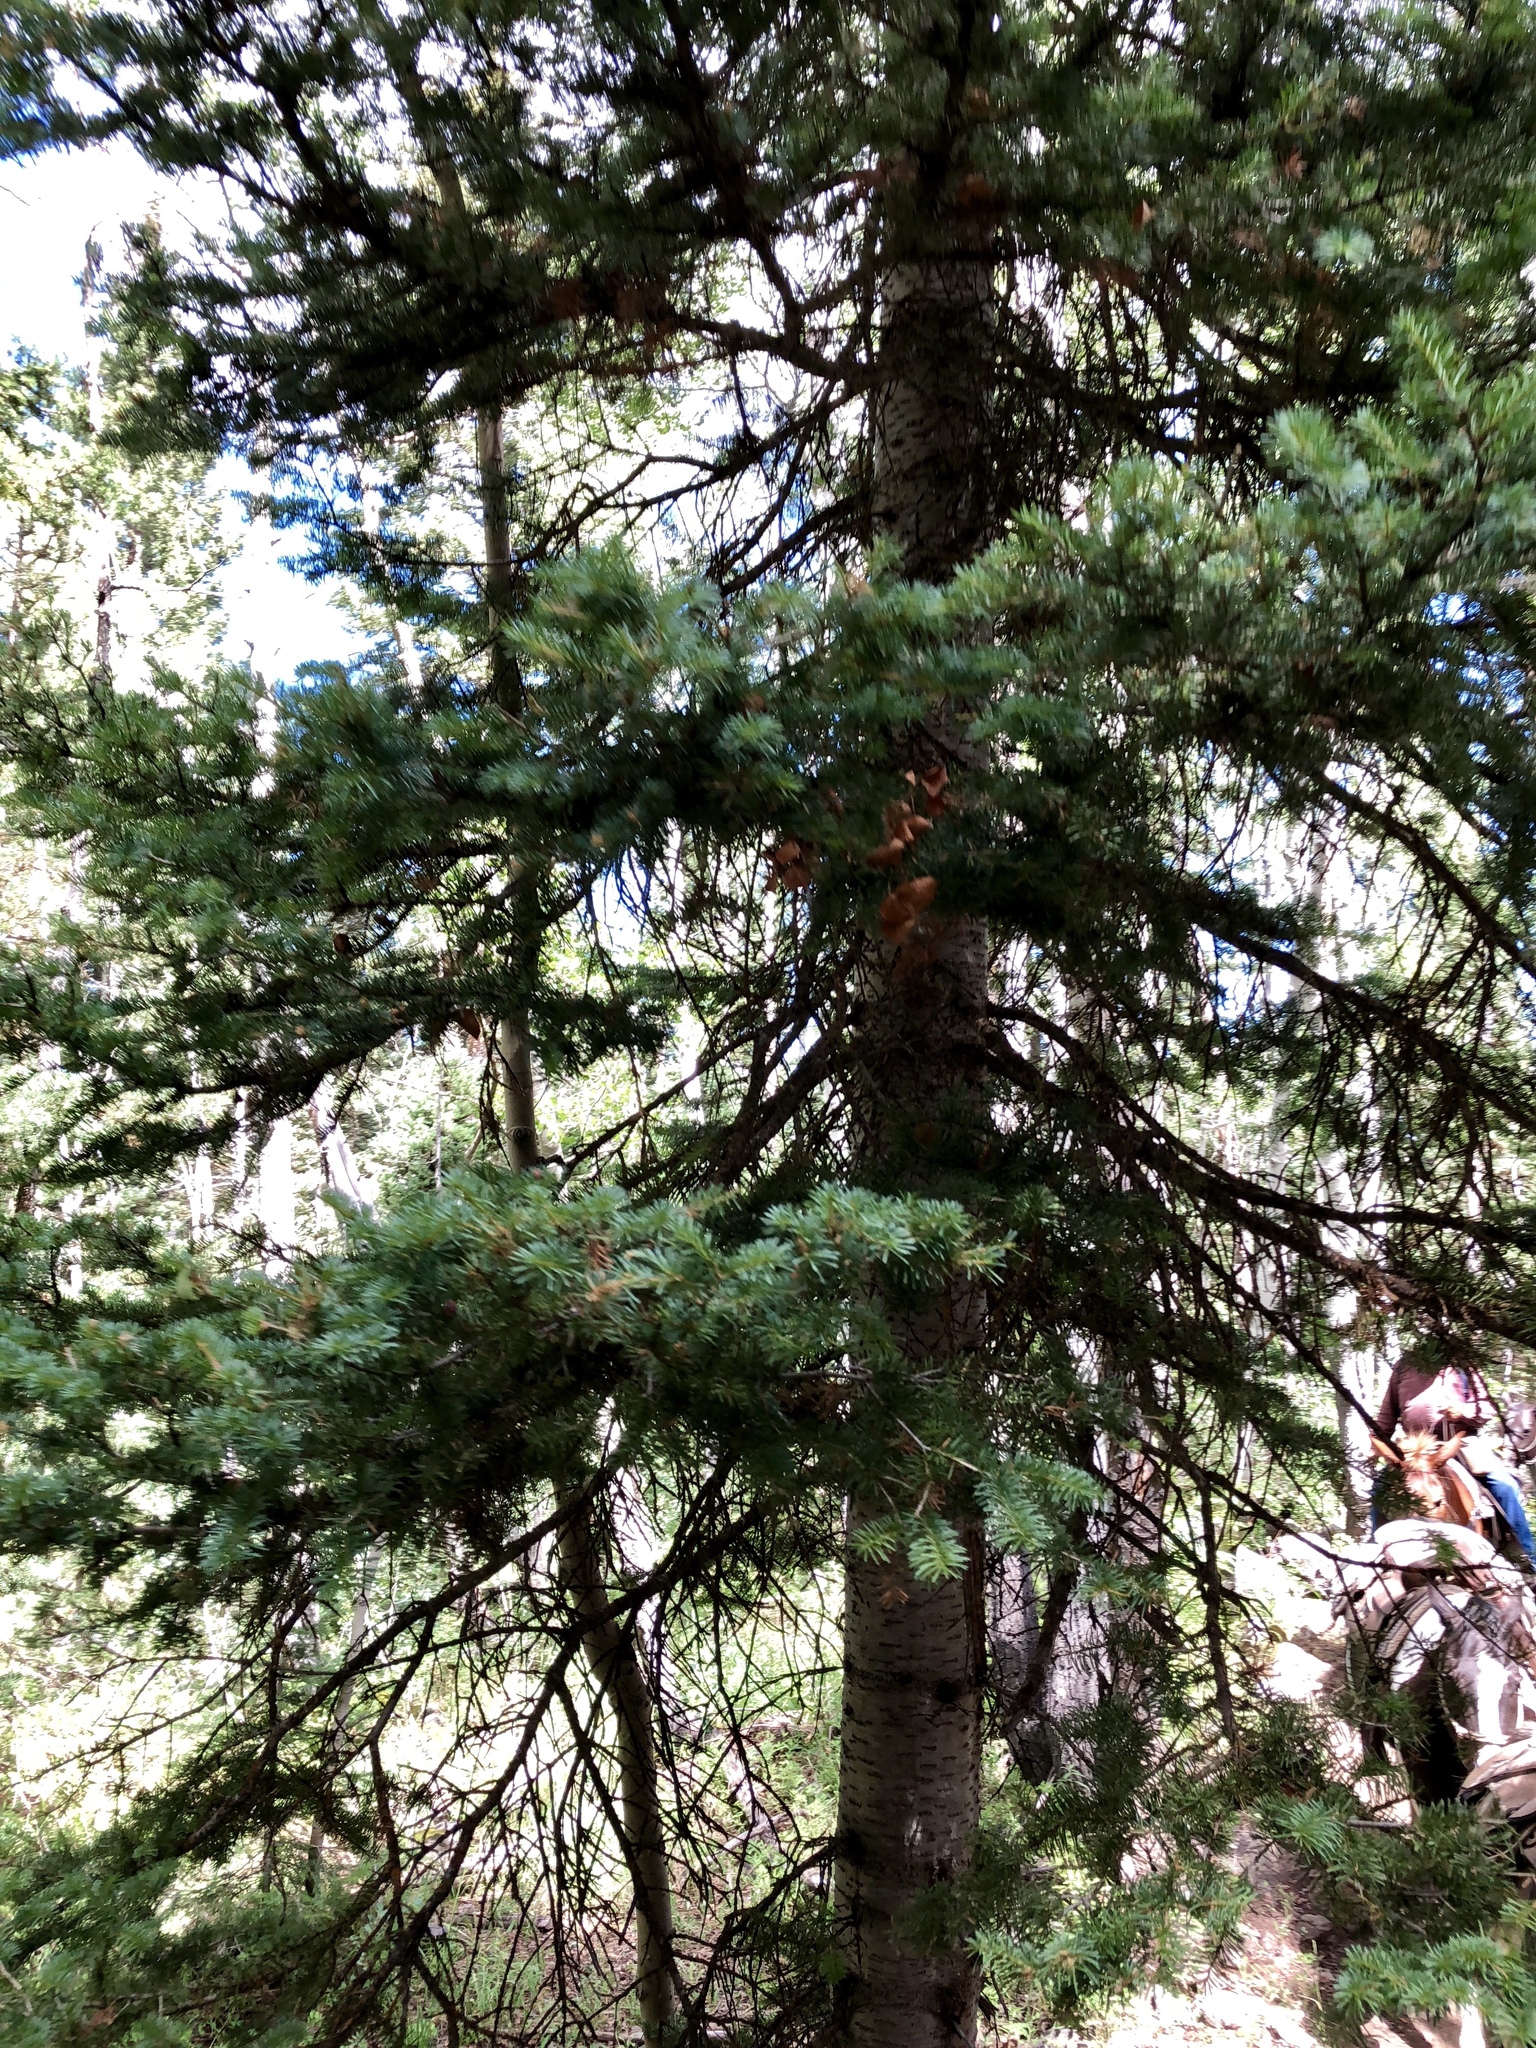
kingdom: Plantae
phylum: Tracheophyta
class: Pinopsida
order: Pinales
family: Pinaceae
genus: Picea
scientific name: Picea engelmannii
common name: Engelmann spruce
